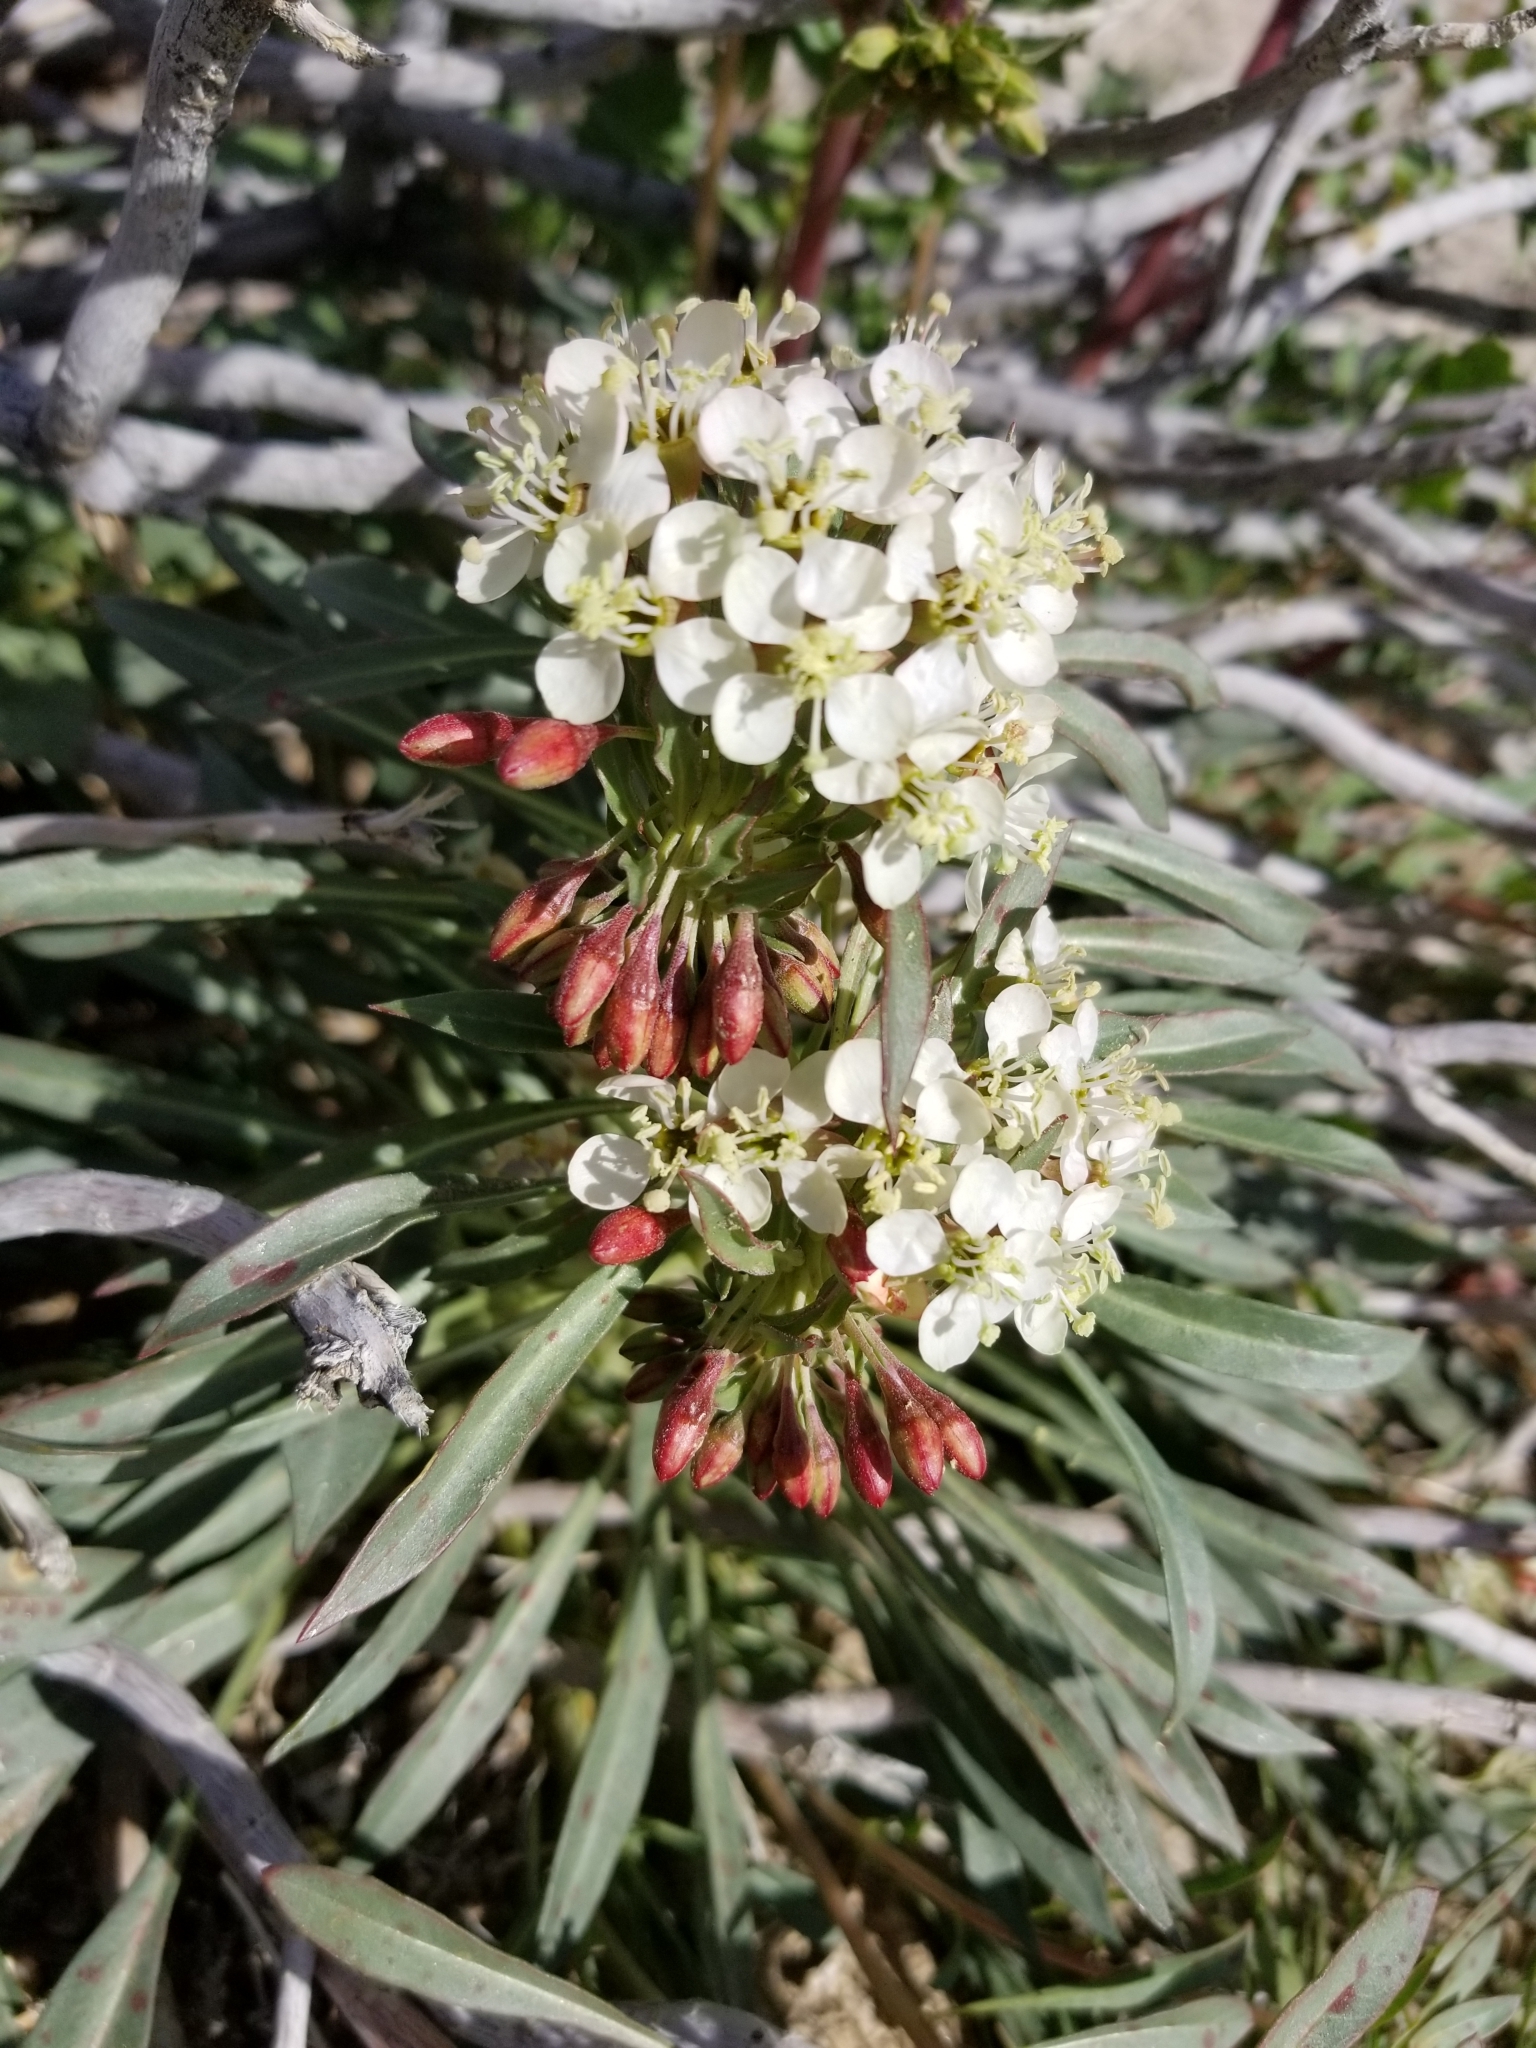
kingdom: Plantae
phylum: Tracheophyta
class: Magnoliopsida
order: Myrtales
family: Onagraceae
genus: Eremothera
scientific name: Eremothera boothii
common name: Booth's evening primrose
